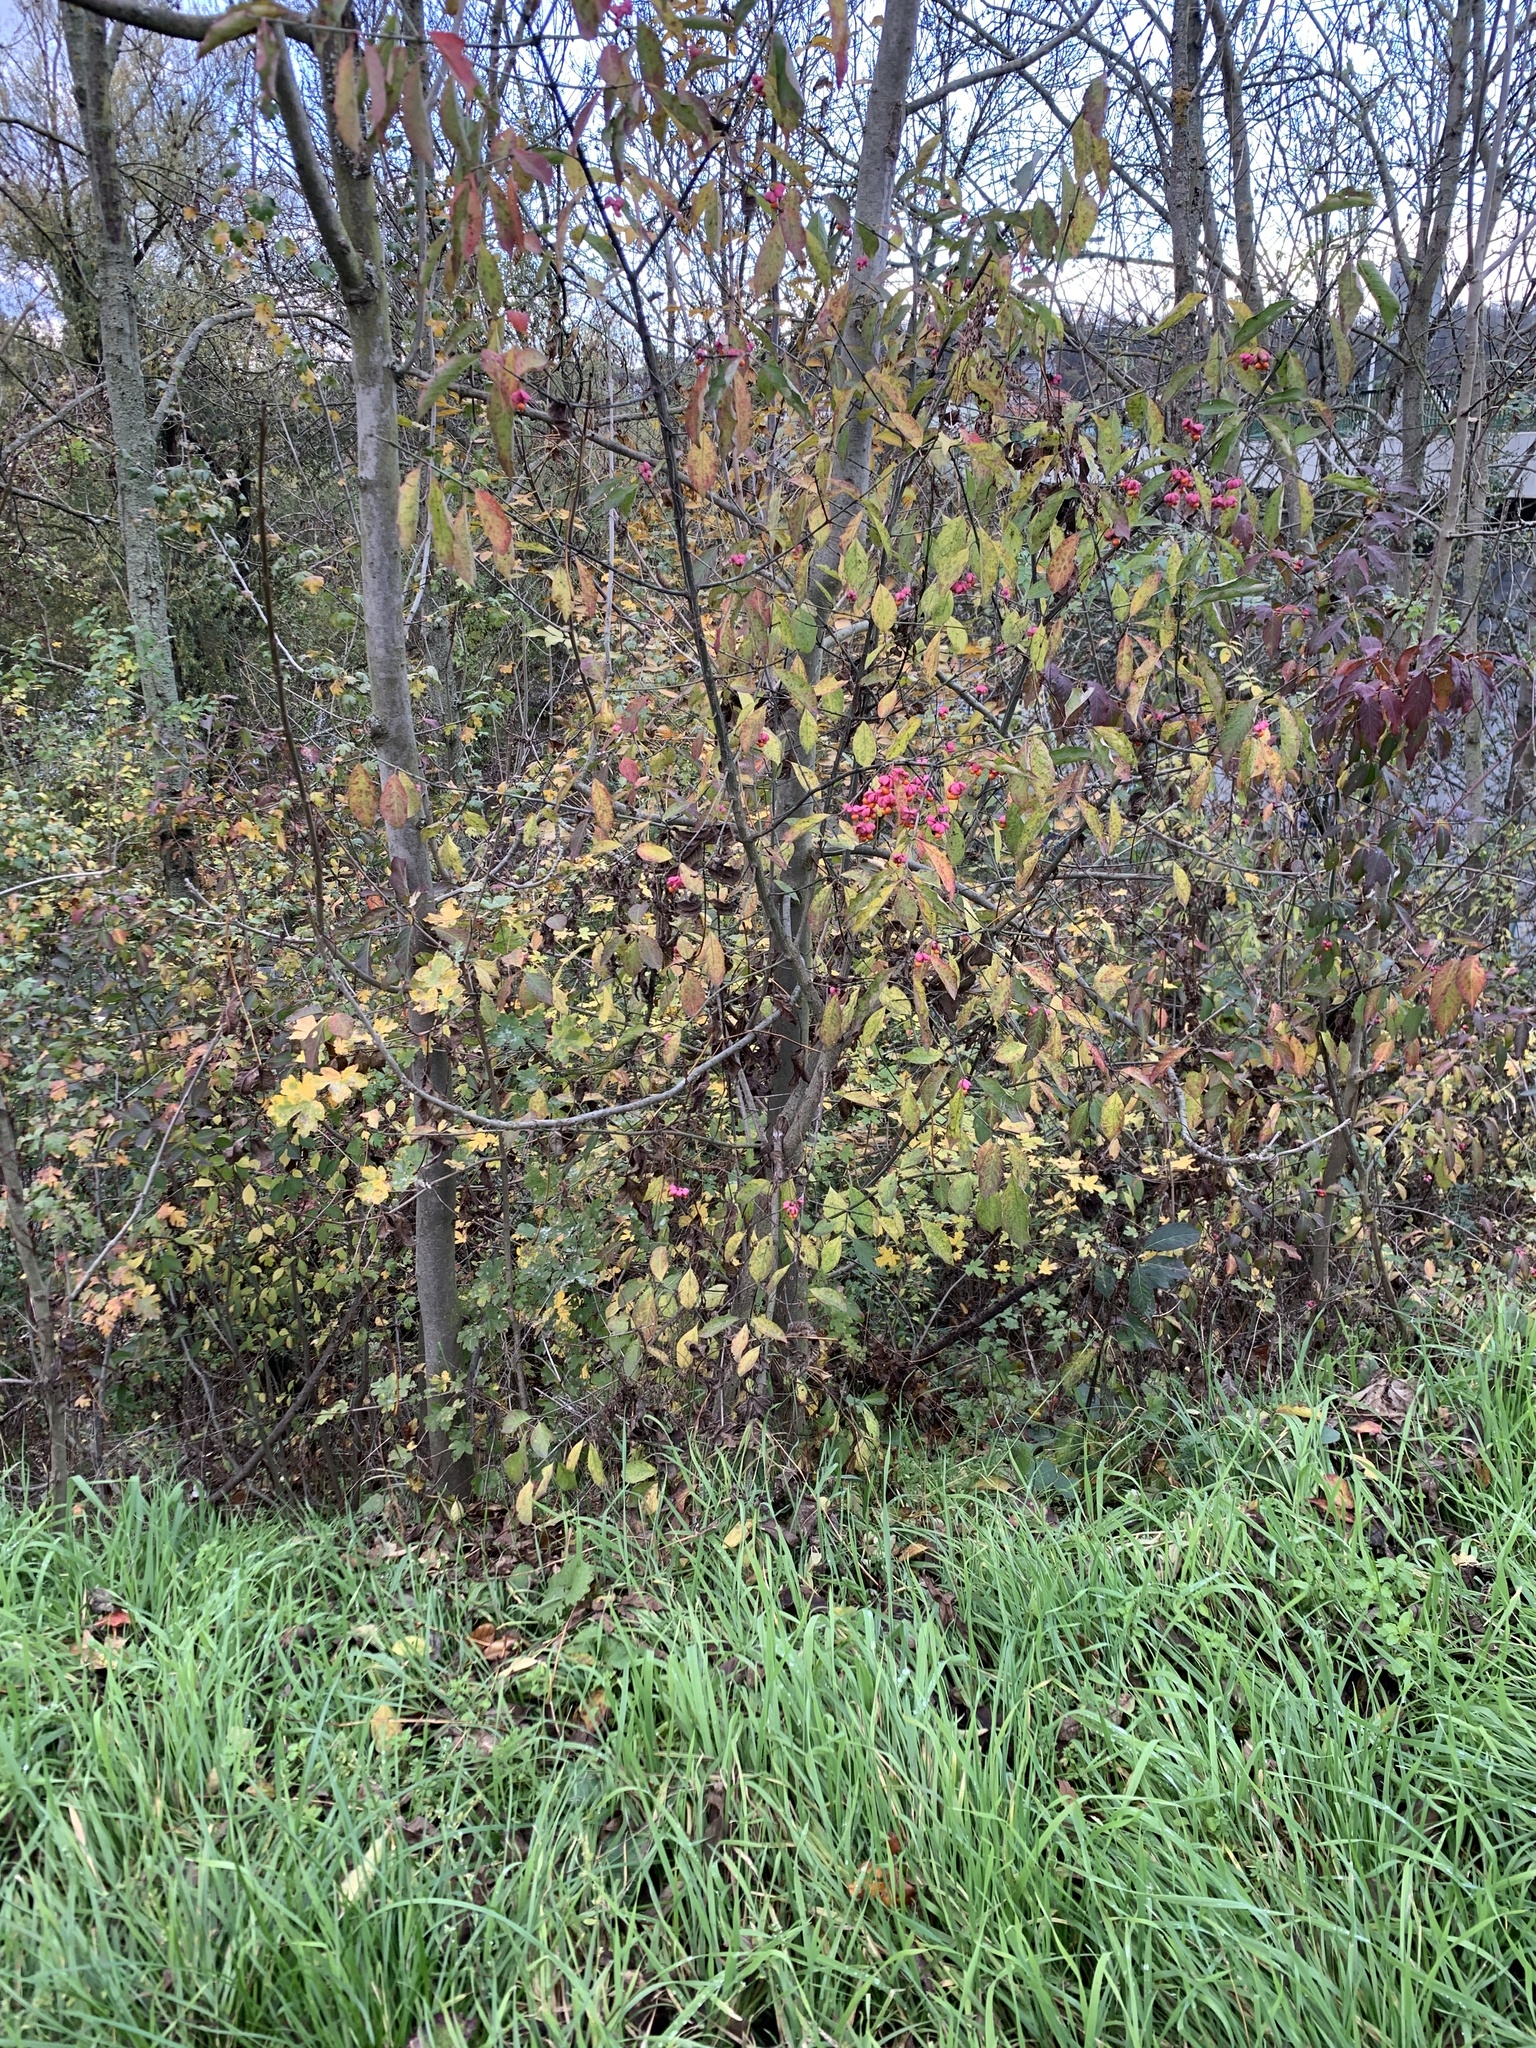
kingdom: Plantae
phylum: Tracheophyta
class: Magnoliopsida
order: Celastrales
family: Celastraceae
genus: Euonymus
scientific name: Euonymus europaeus
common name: Spindle
